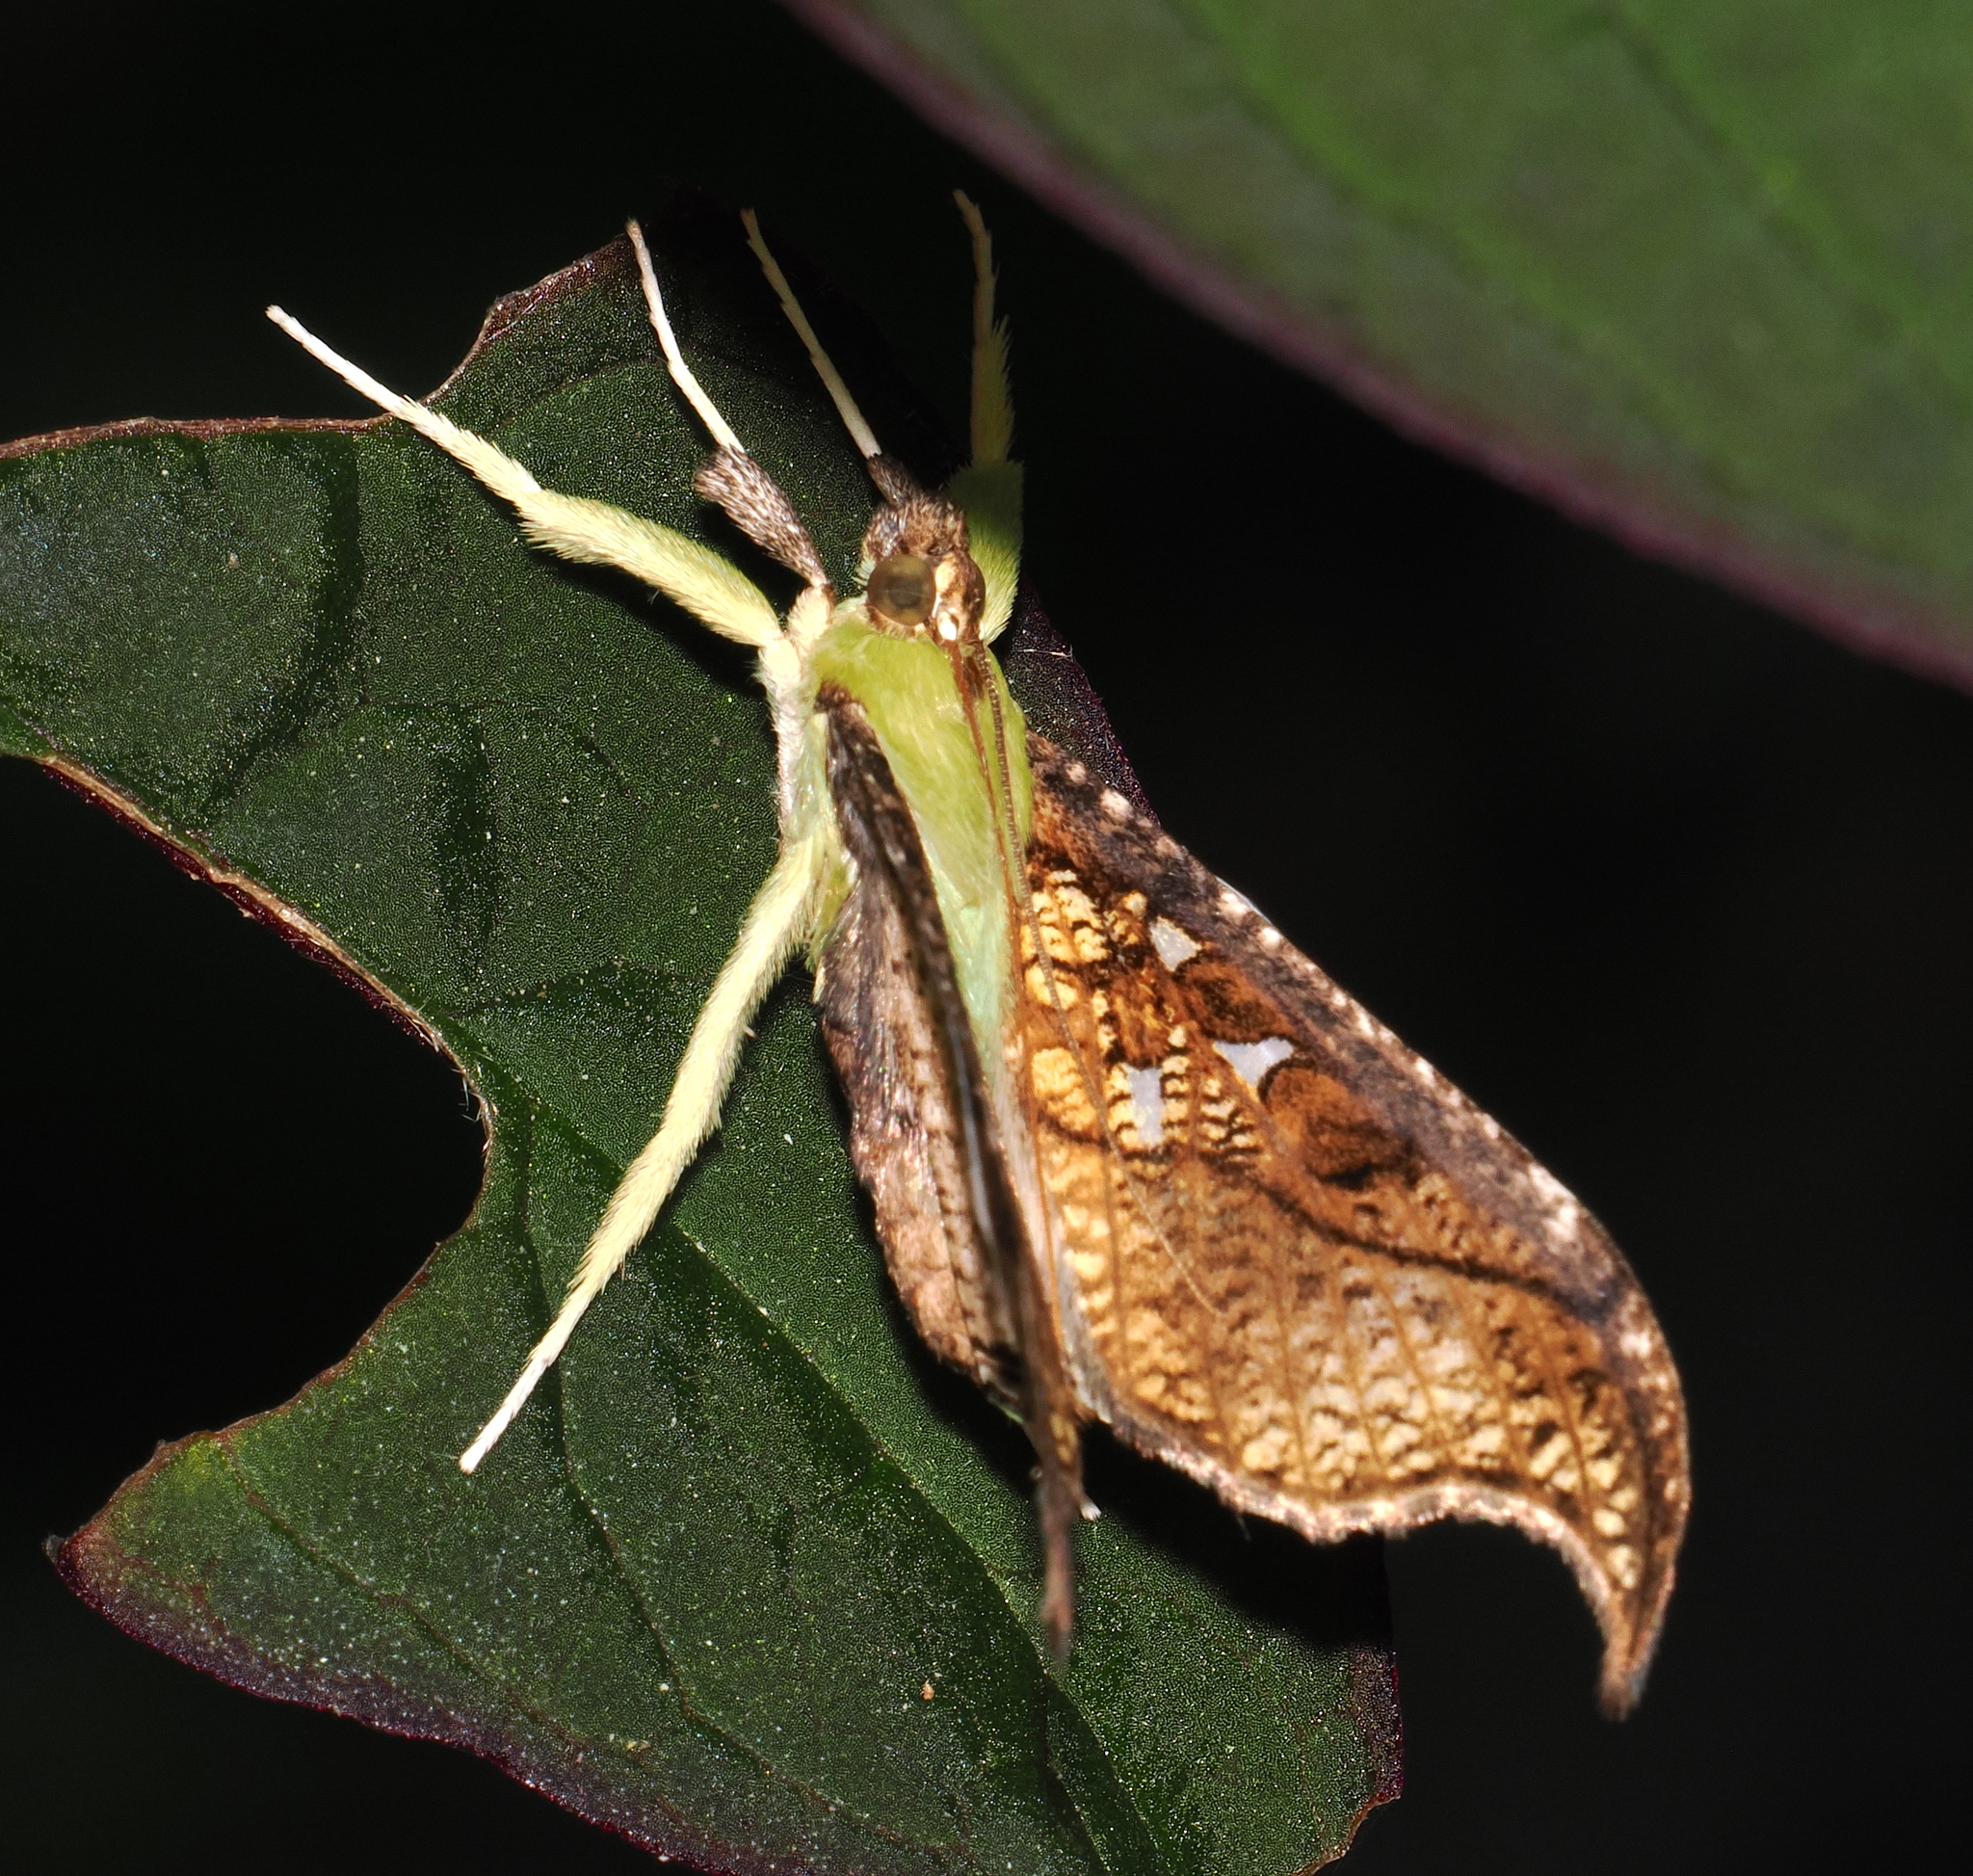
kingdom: Animalia
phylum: Arthropoda
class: Insecta
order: Lepidoptera
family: Crambidae
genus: Megaphysa
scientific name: Megaphysa herbiferalis
